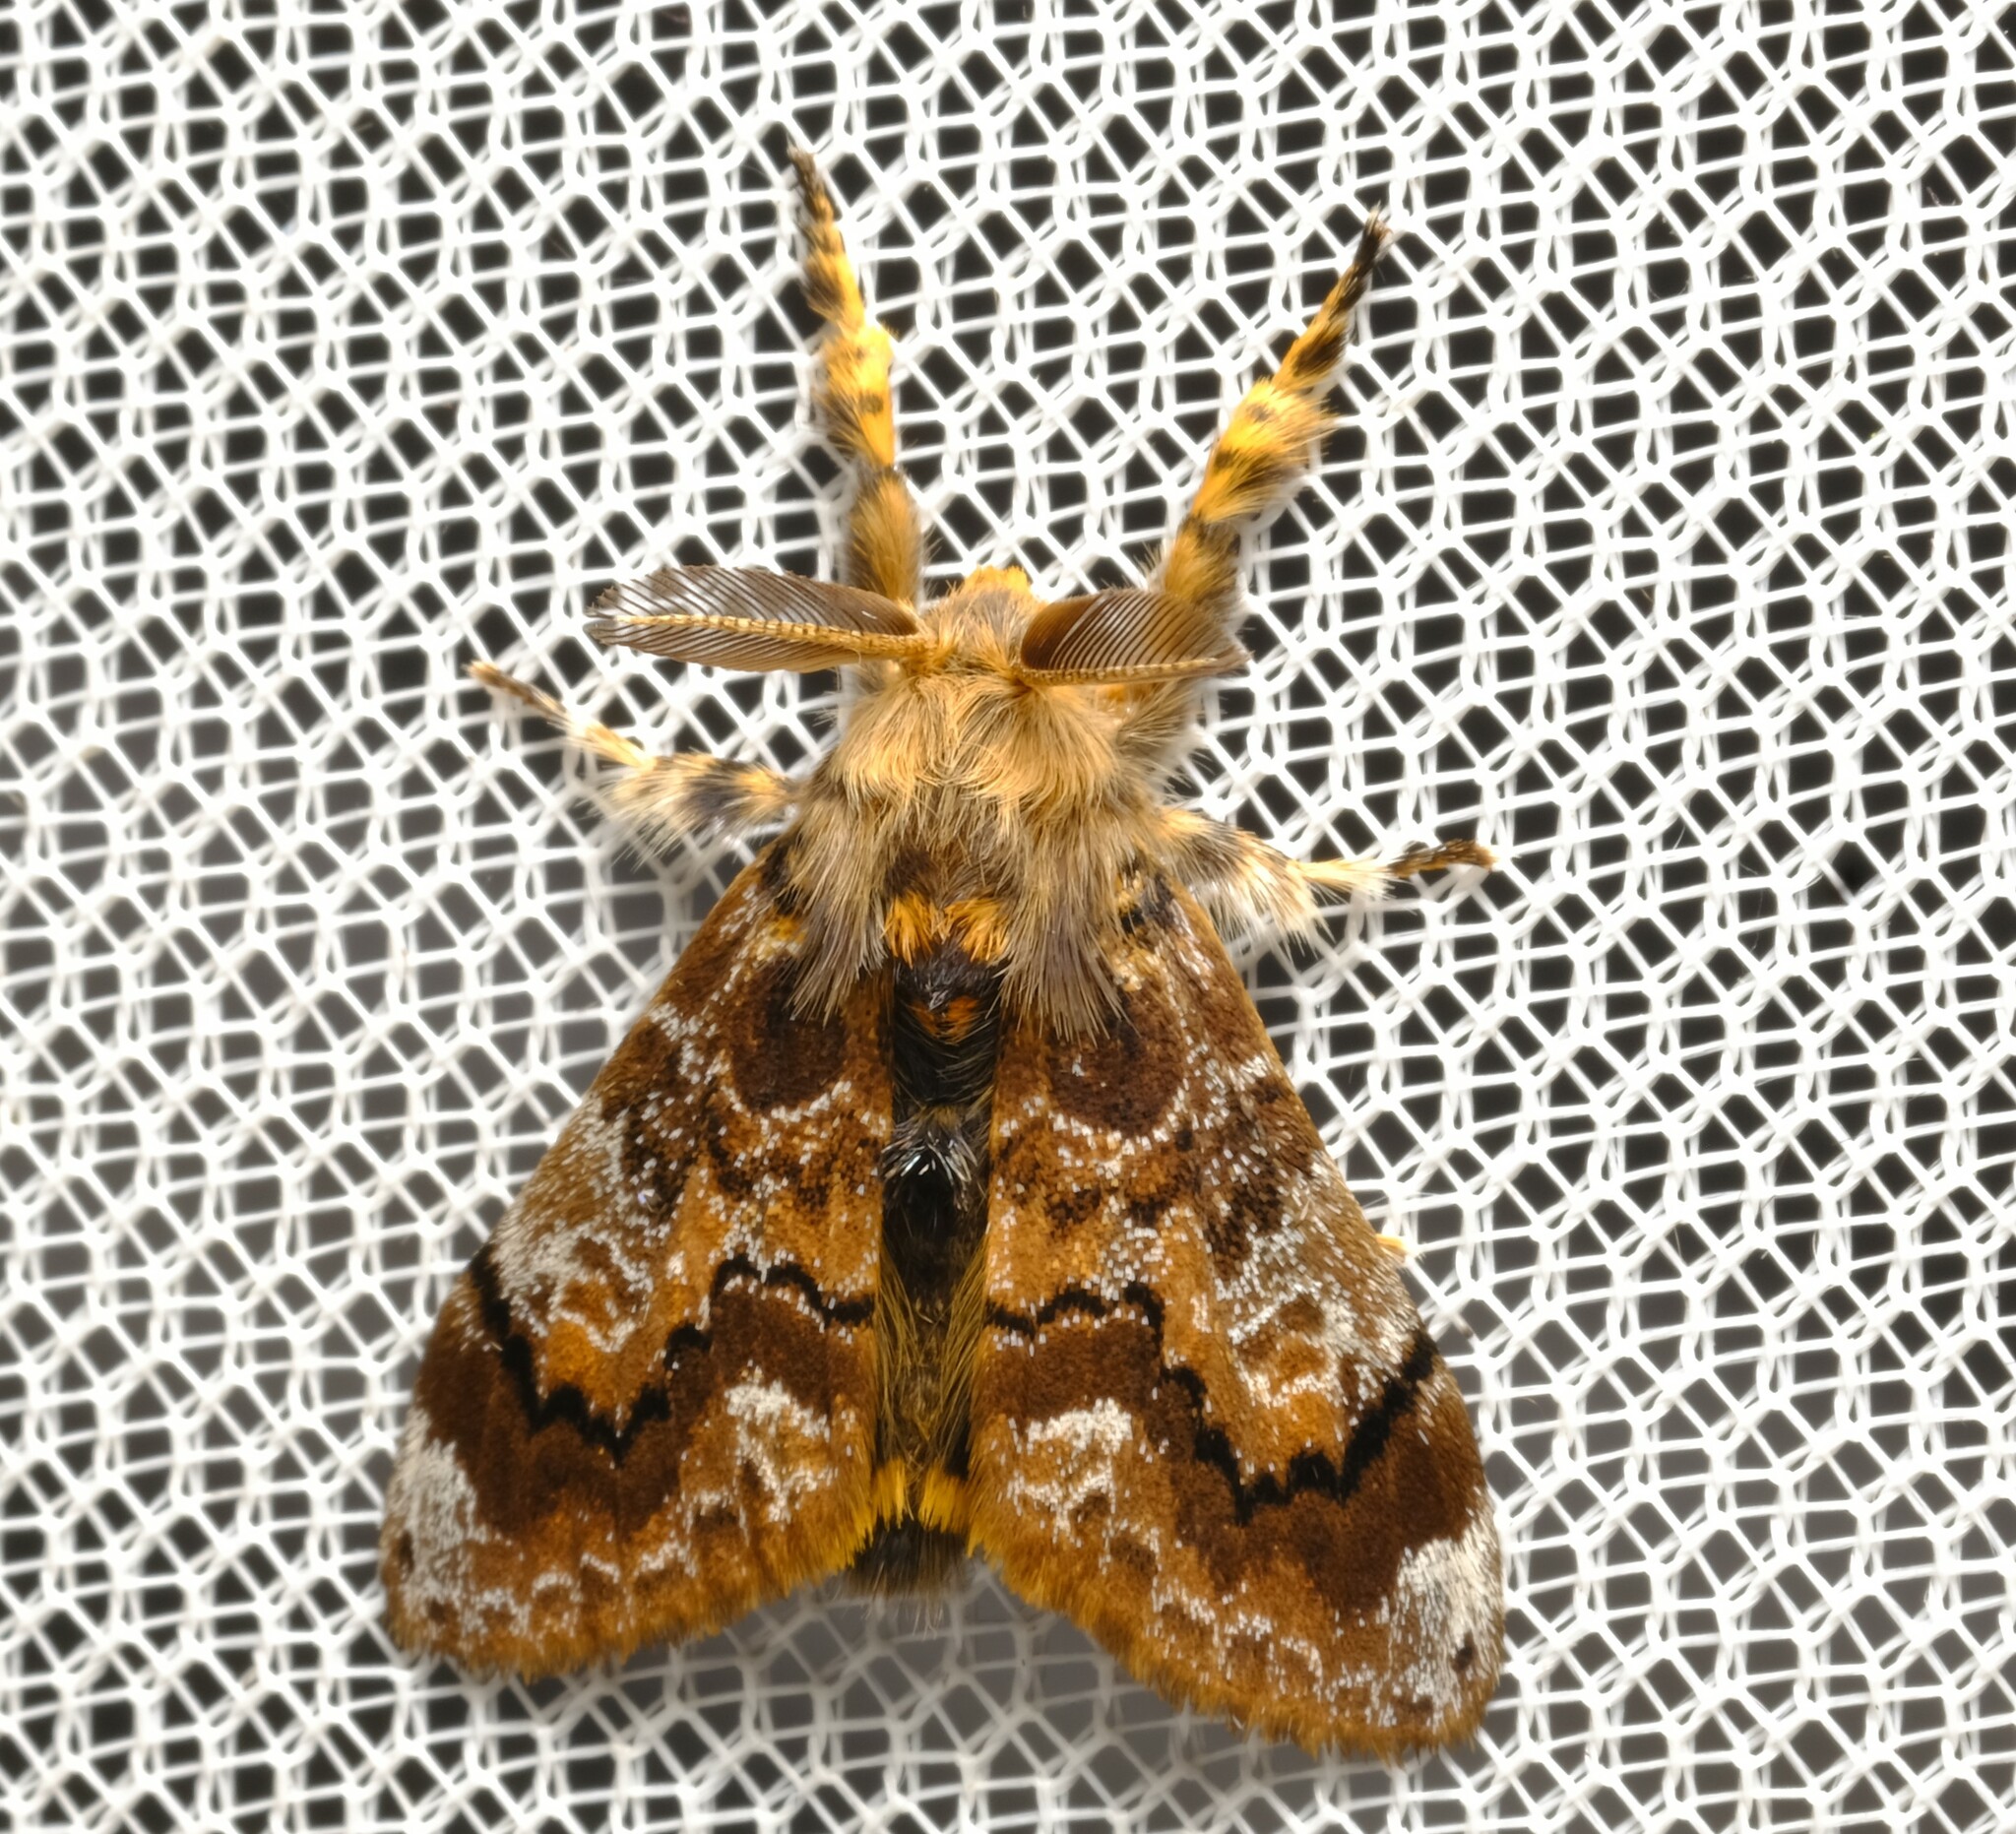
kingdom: Animalia
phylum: Arthropoda
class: Insecta
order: Lepidoptera
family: Erebidae
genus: Orgyia
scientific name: Orgyia
